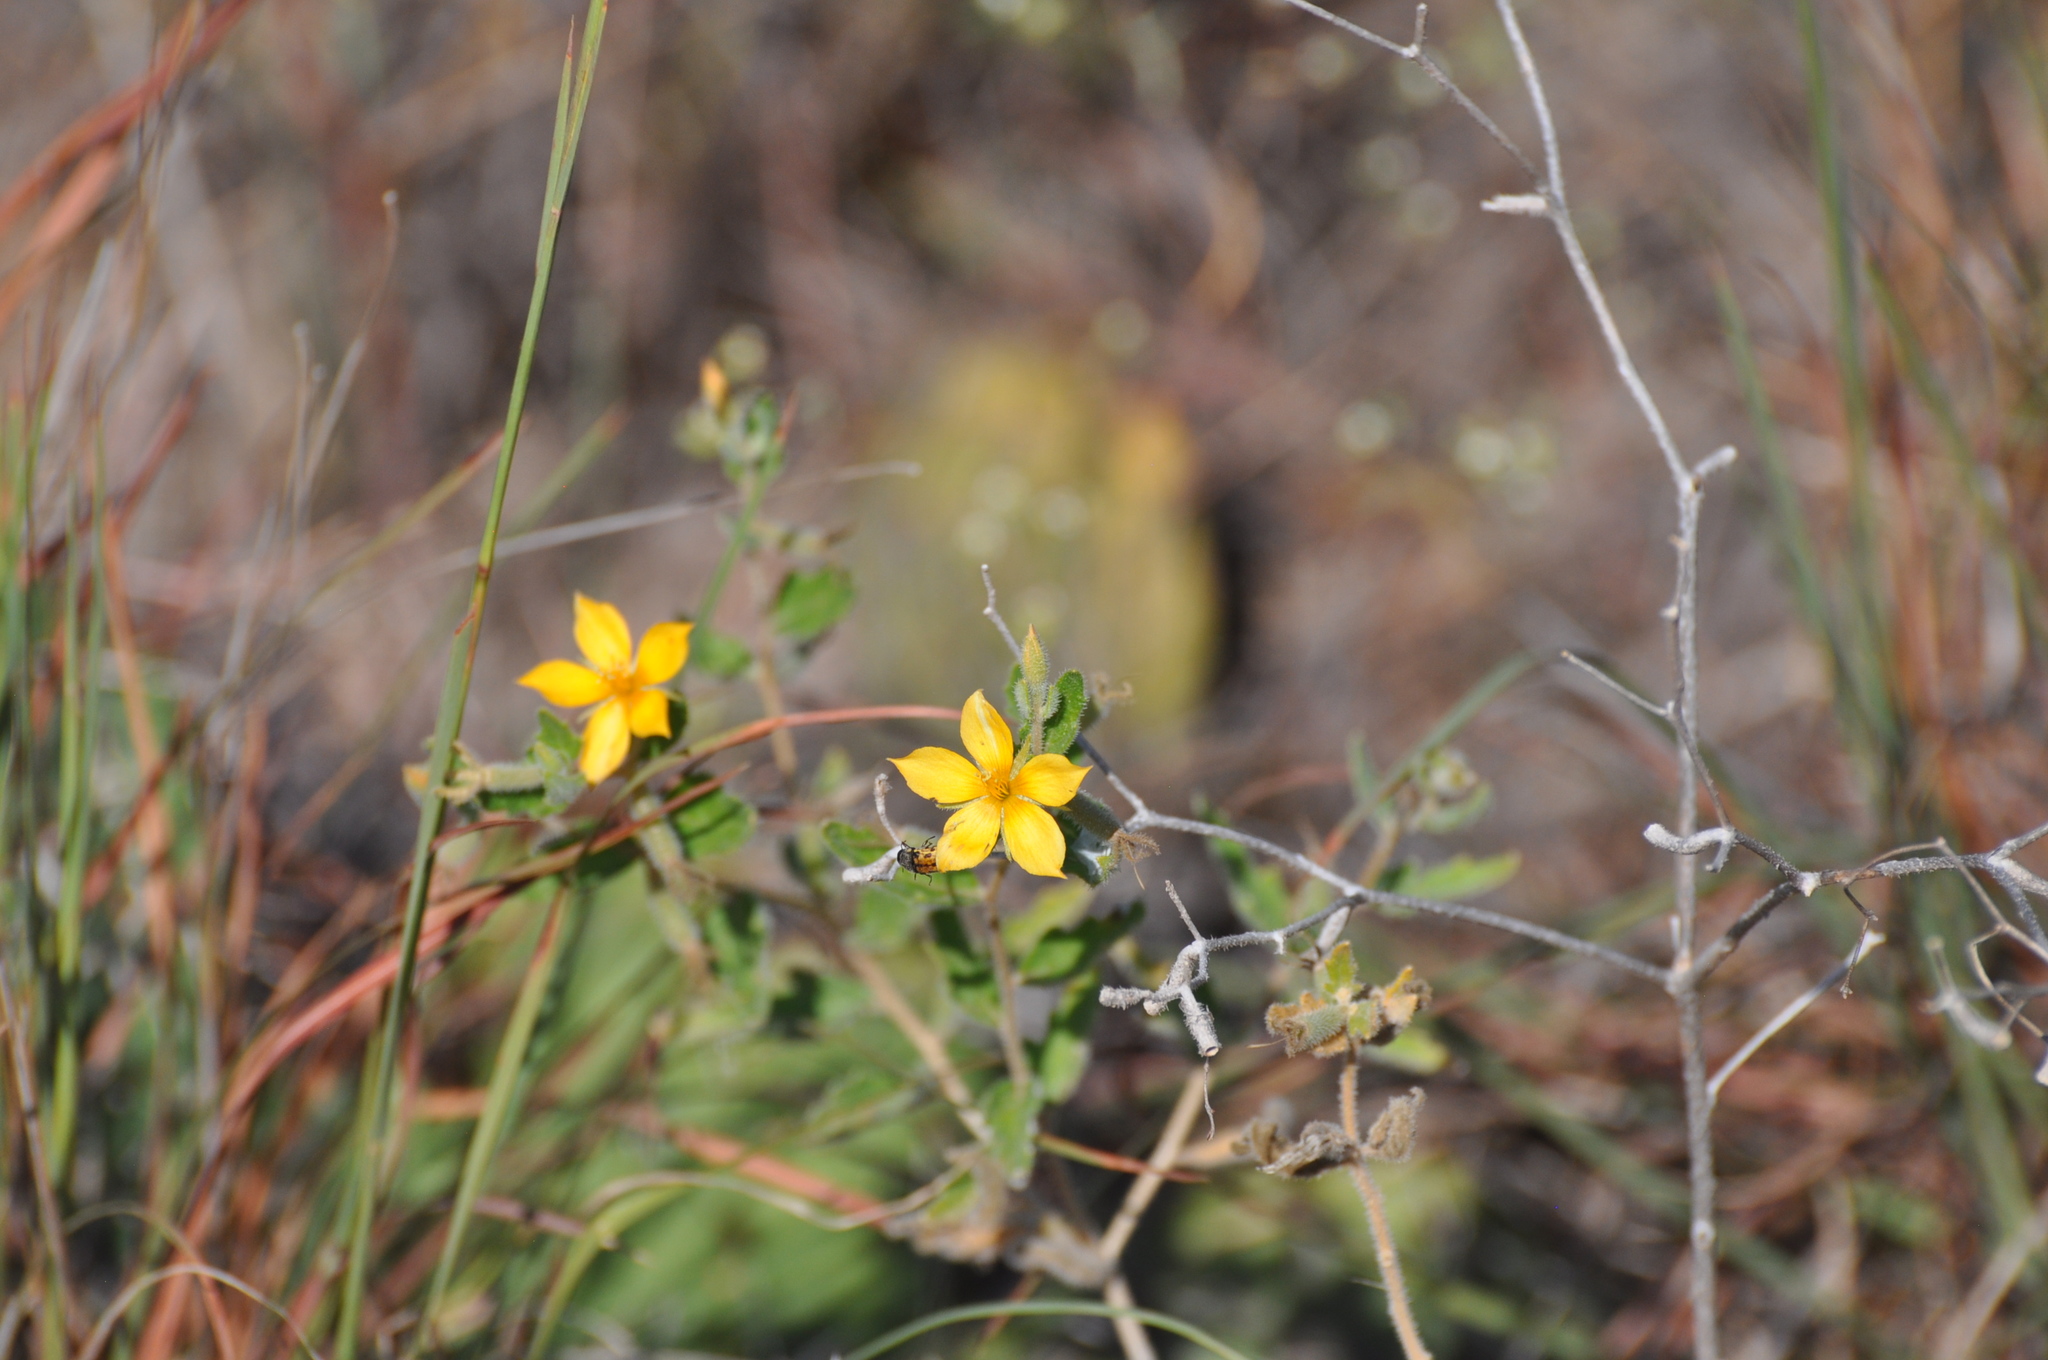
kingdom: Plantae
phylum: Tracheophyta
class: Magnoliopsida
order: Cornales
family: Loasaceae
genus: Mentzelia
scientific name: Mentzelia oligosperma
